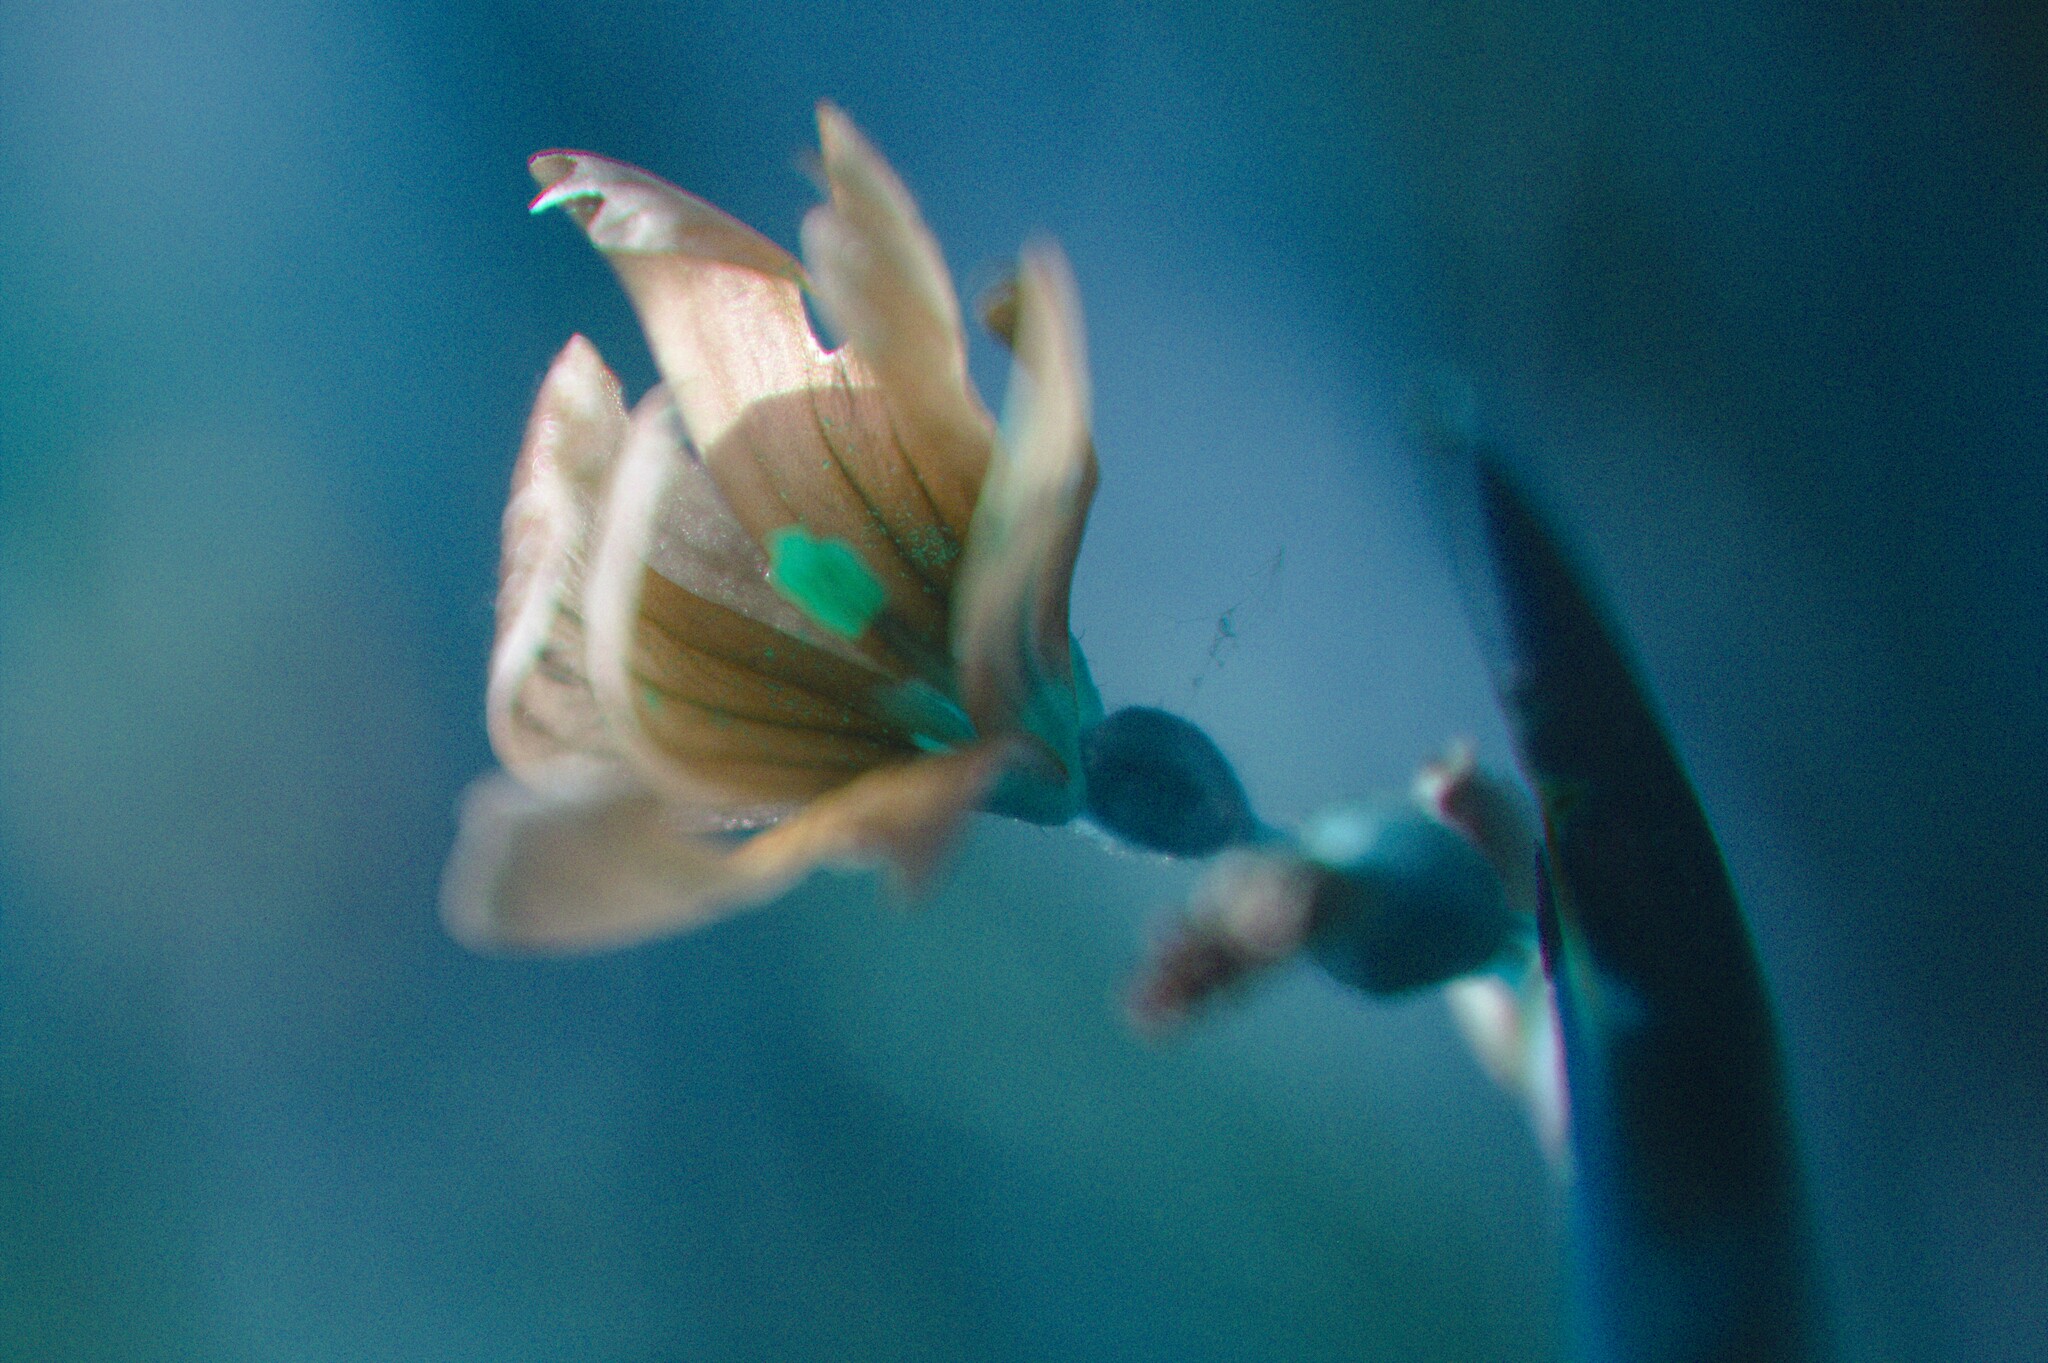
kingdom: Plantae
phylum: Tracheophyta
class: Liliopsida
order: Asparagales
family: Iridaceae
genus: Sisyrinchium
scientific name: Sisyrinchium montanum
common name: American blue-eyed-grass
